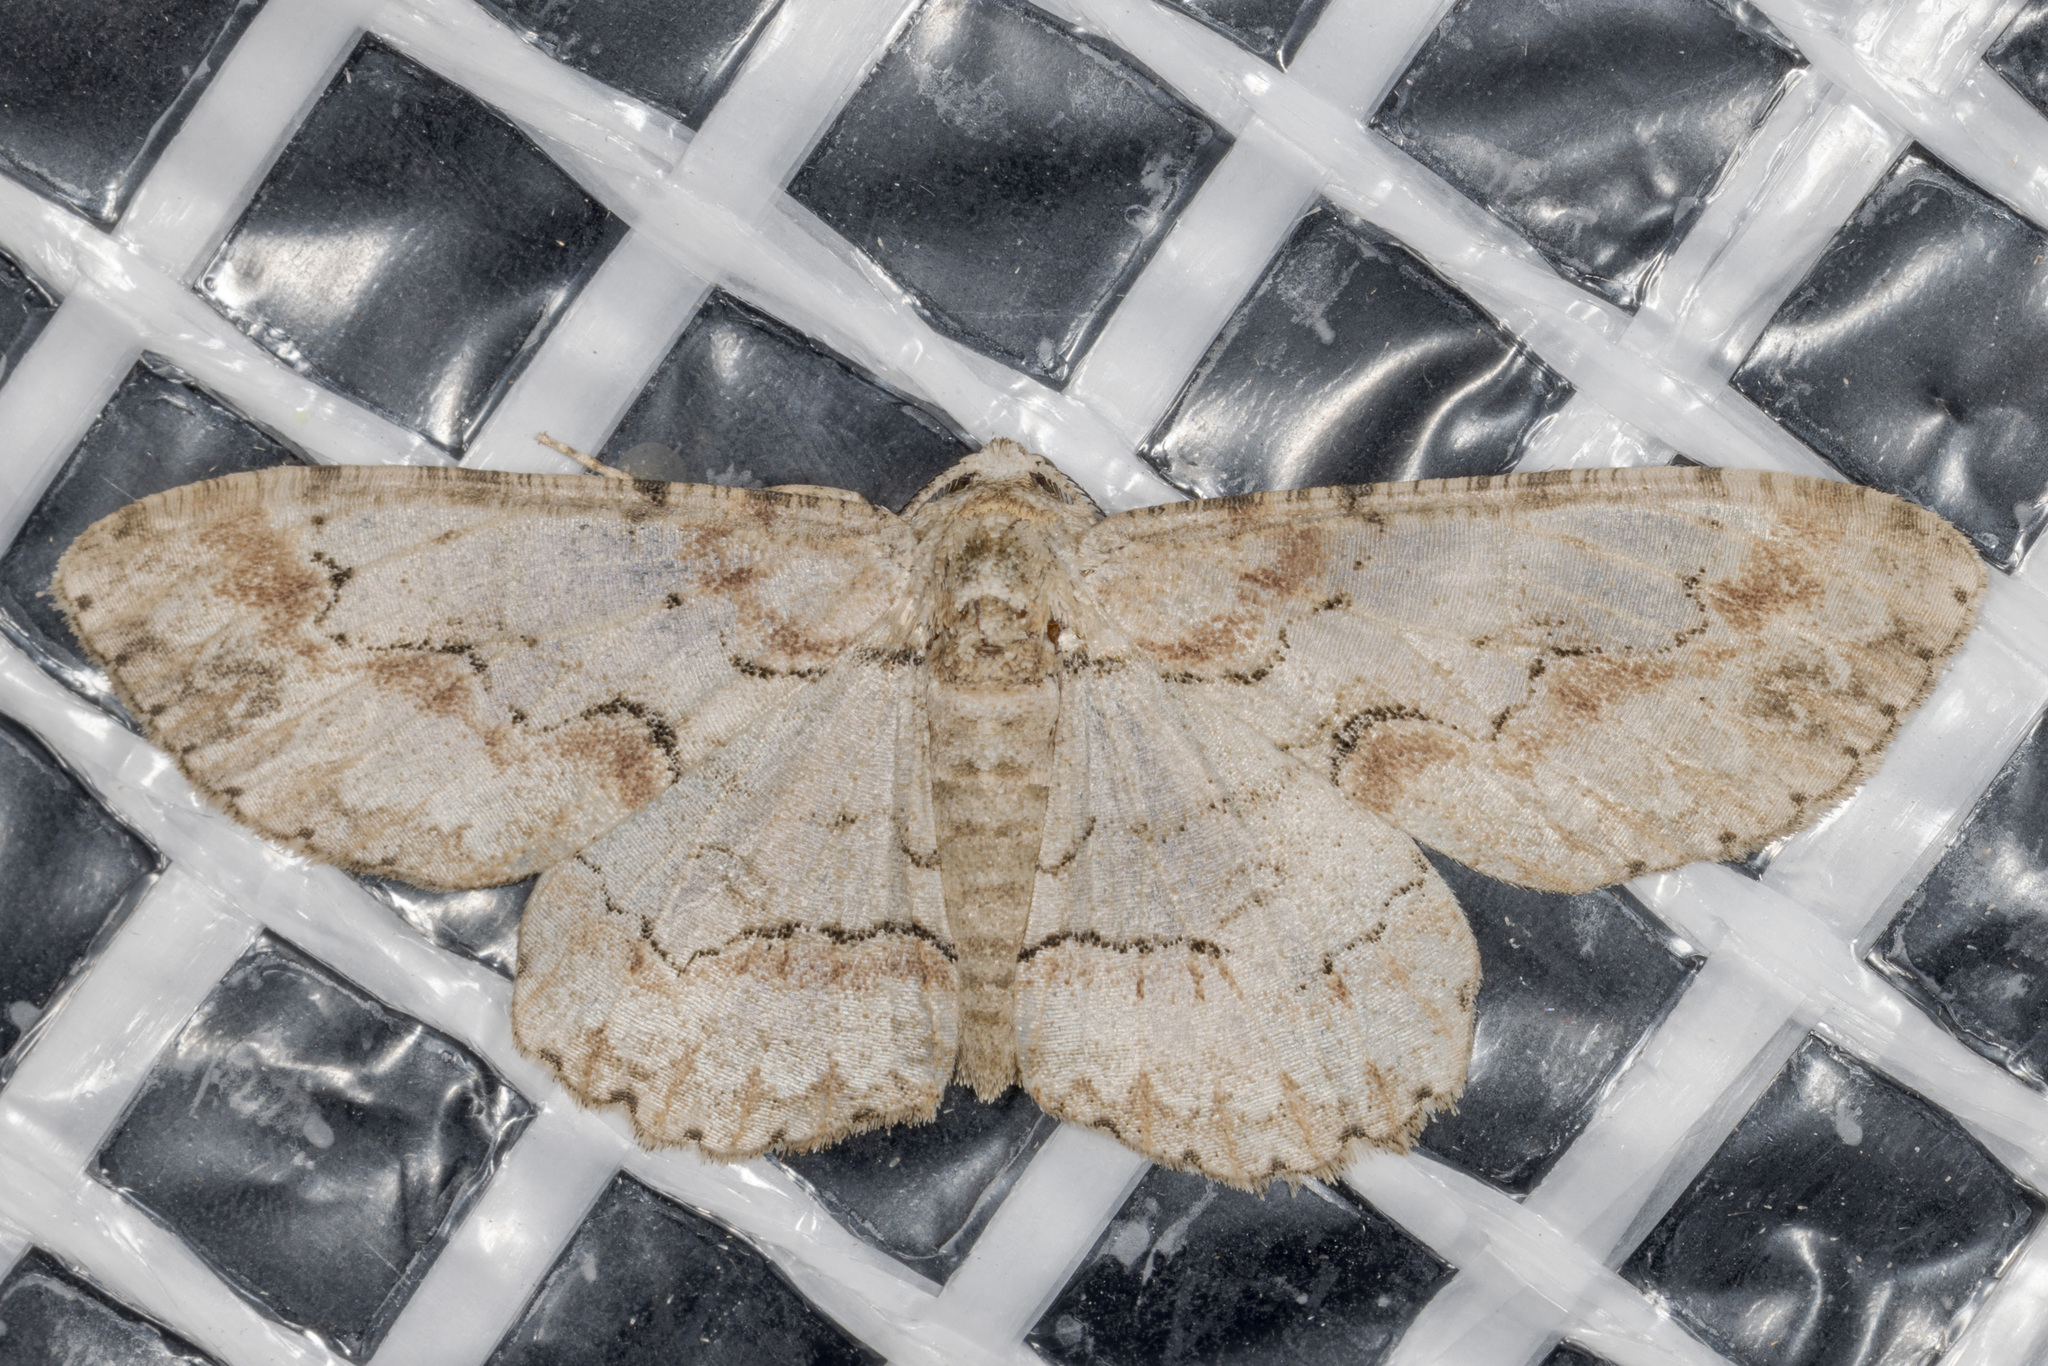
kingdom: Animalia
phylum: Arthropoda
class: Insecta
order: Lepidoptera
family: Geometridae
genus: Iridopsis
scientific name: Iridopsis defectaria
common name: Brown-shaded gray
